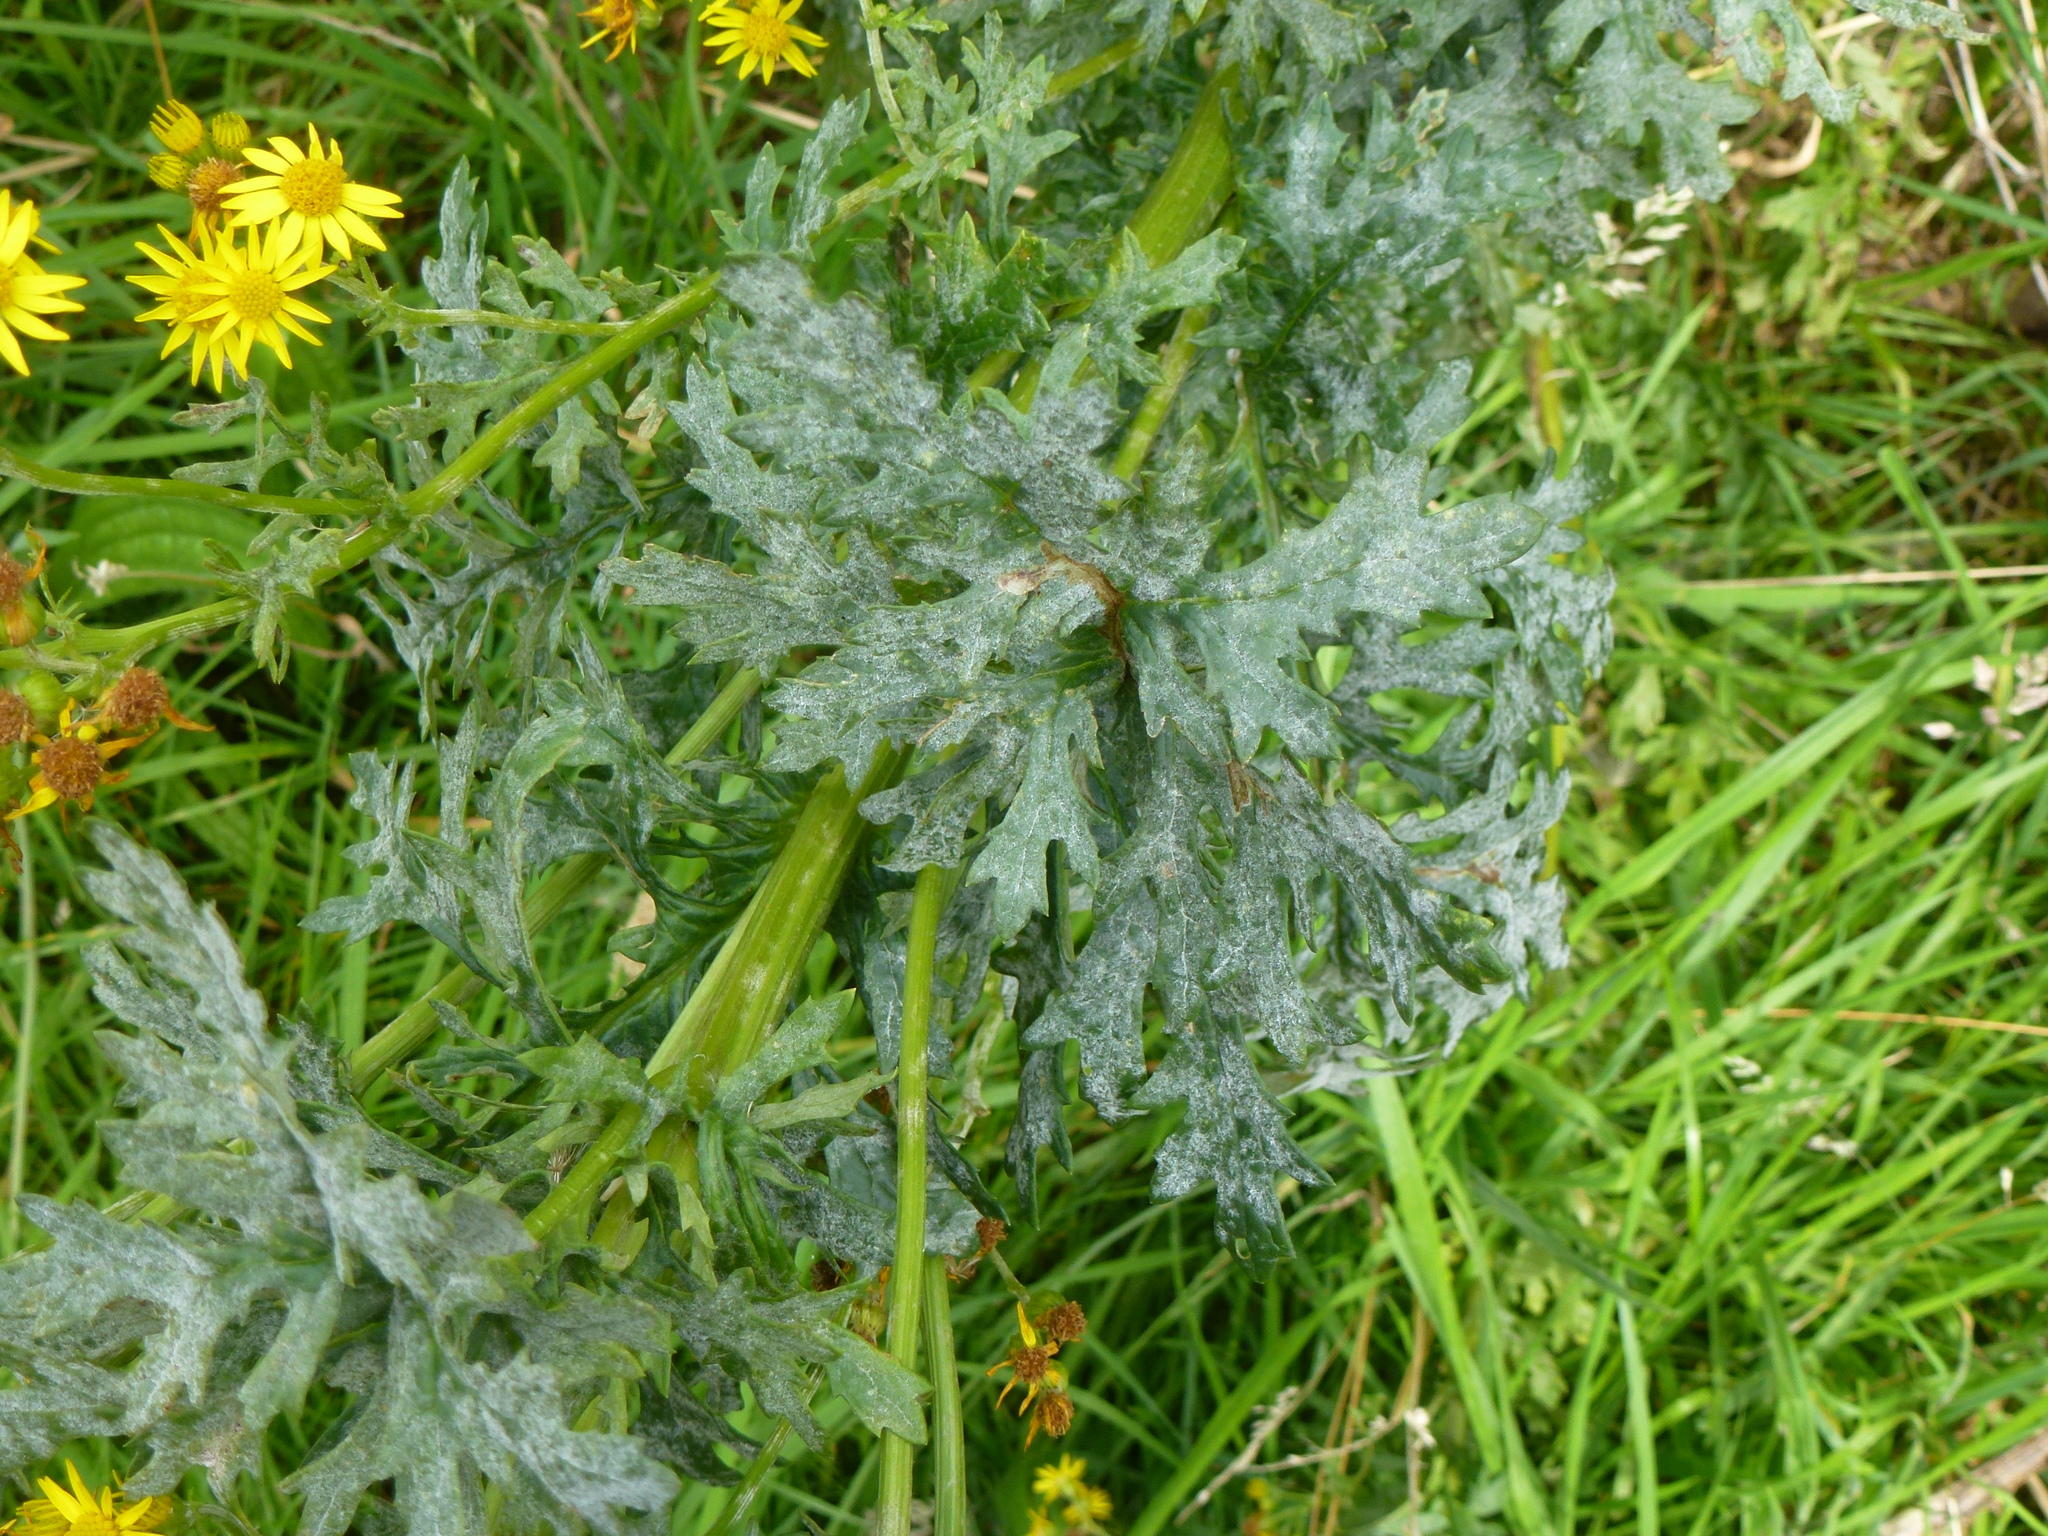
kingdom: Fungi
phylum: Ascomycota
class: Leotiomycetes
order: Helotiales
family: Erysiphaceae
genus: Golovinomyces
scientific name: Golovinomyces senecionis
